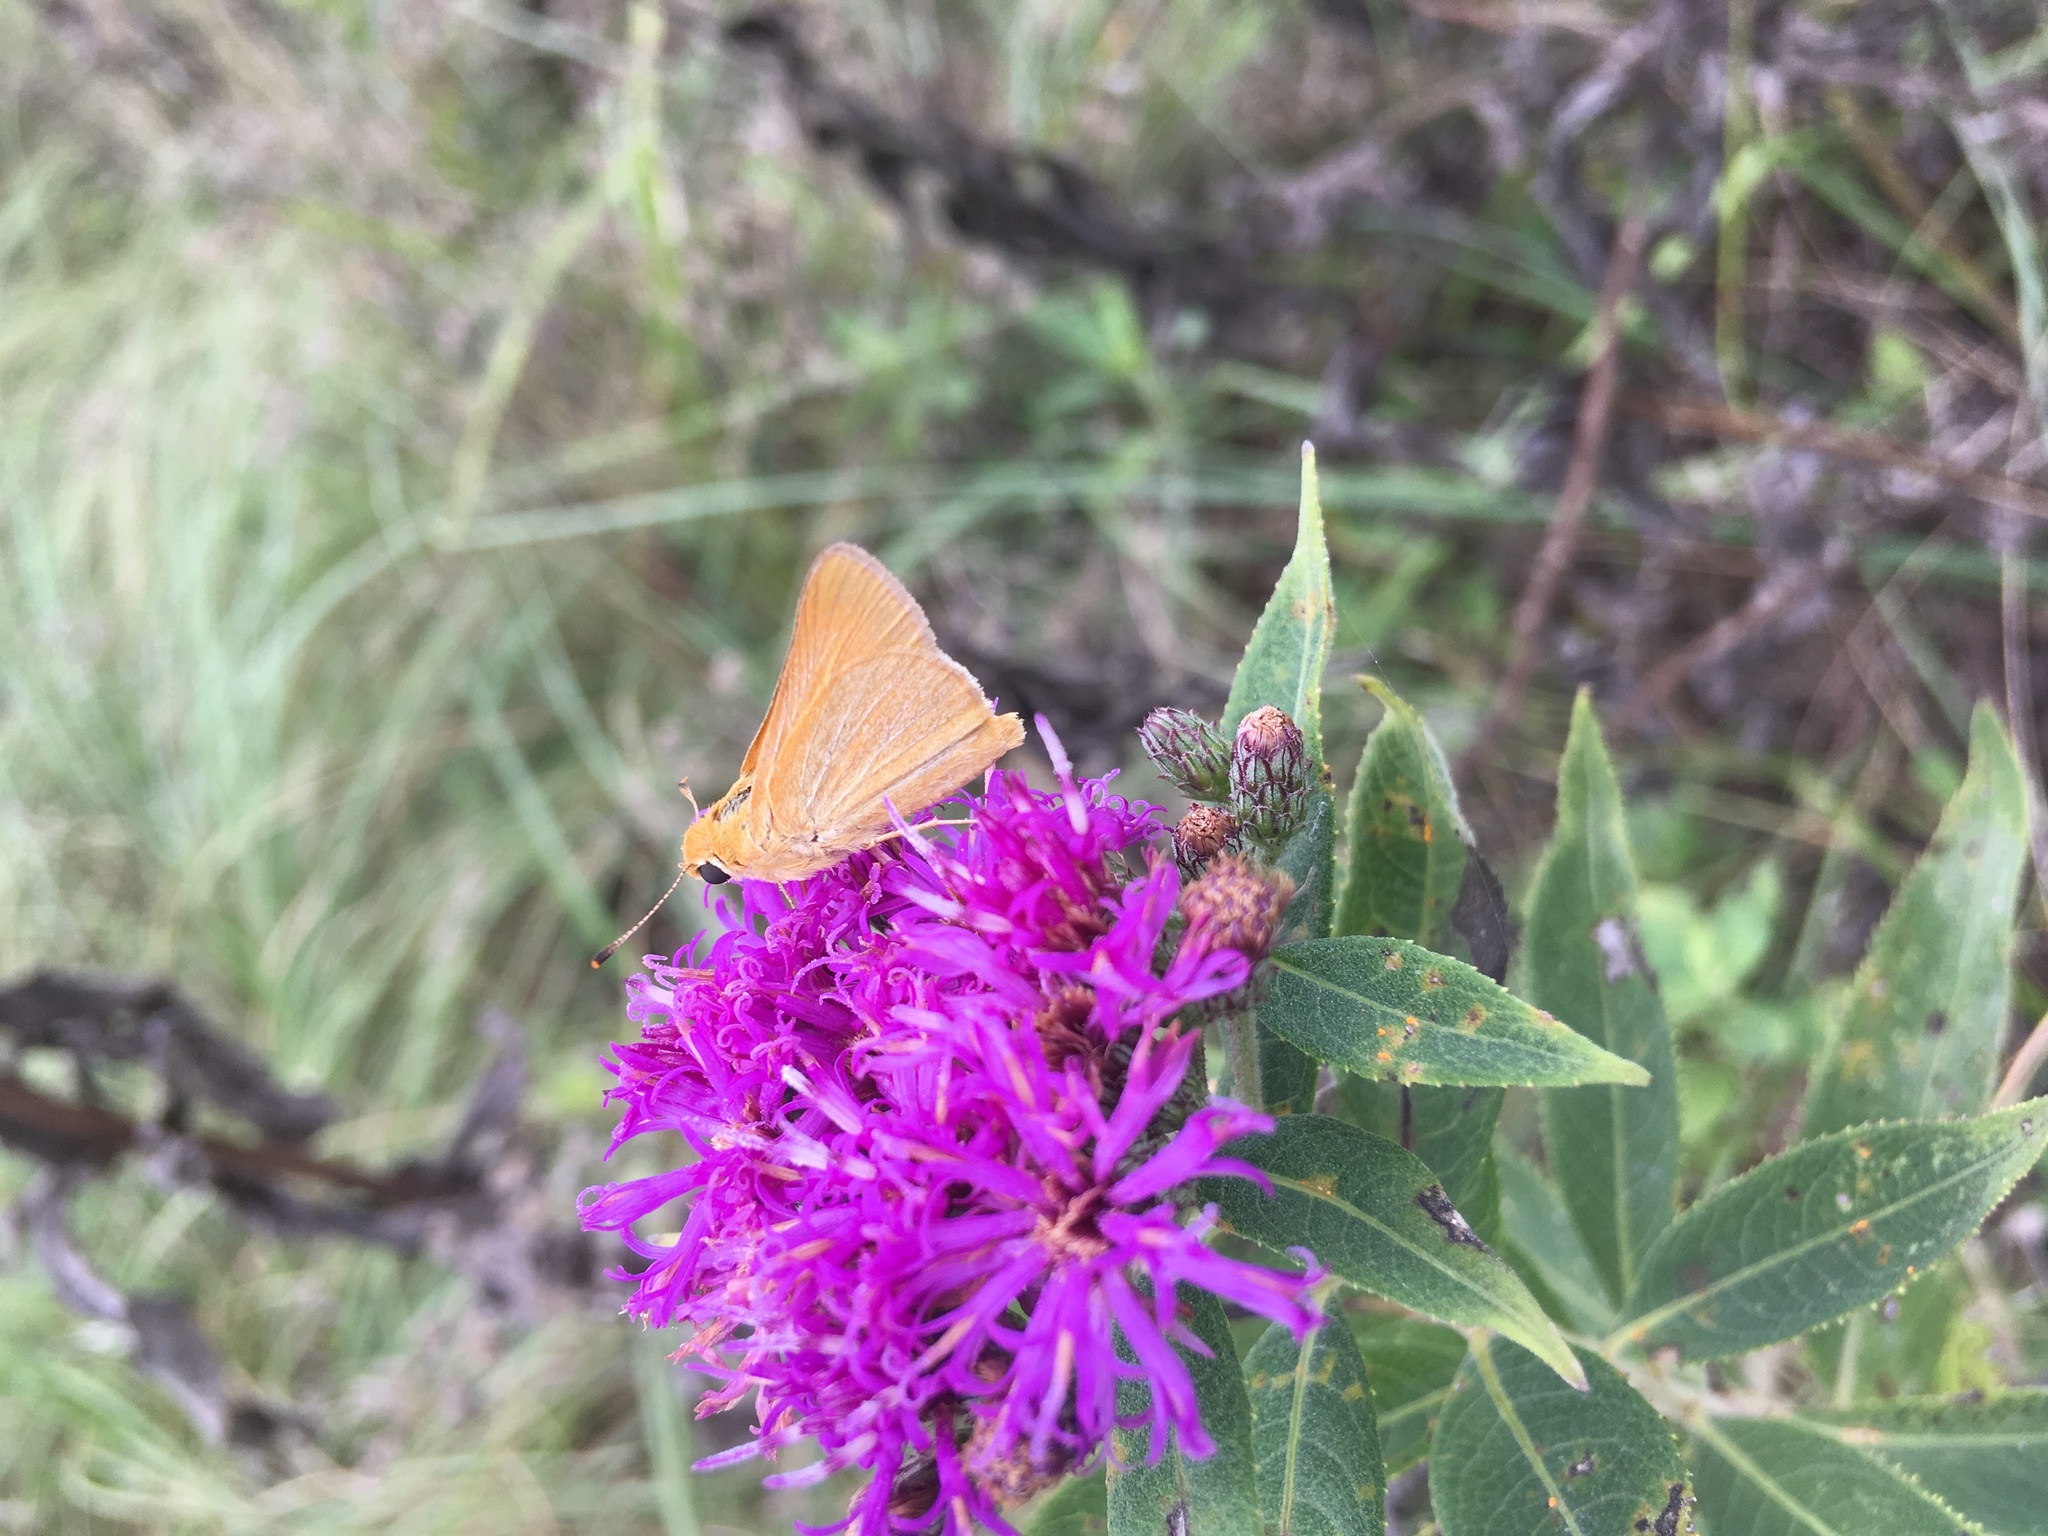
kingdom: Animalia
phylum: Arthropoda
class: Insecta
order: Lepidoptera
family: Hesperiidae
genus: Atrytone
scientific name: Atrytone arogos
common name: Arogos skipper
